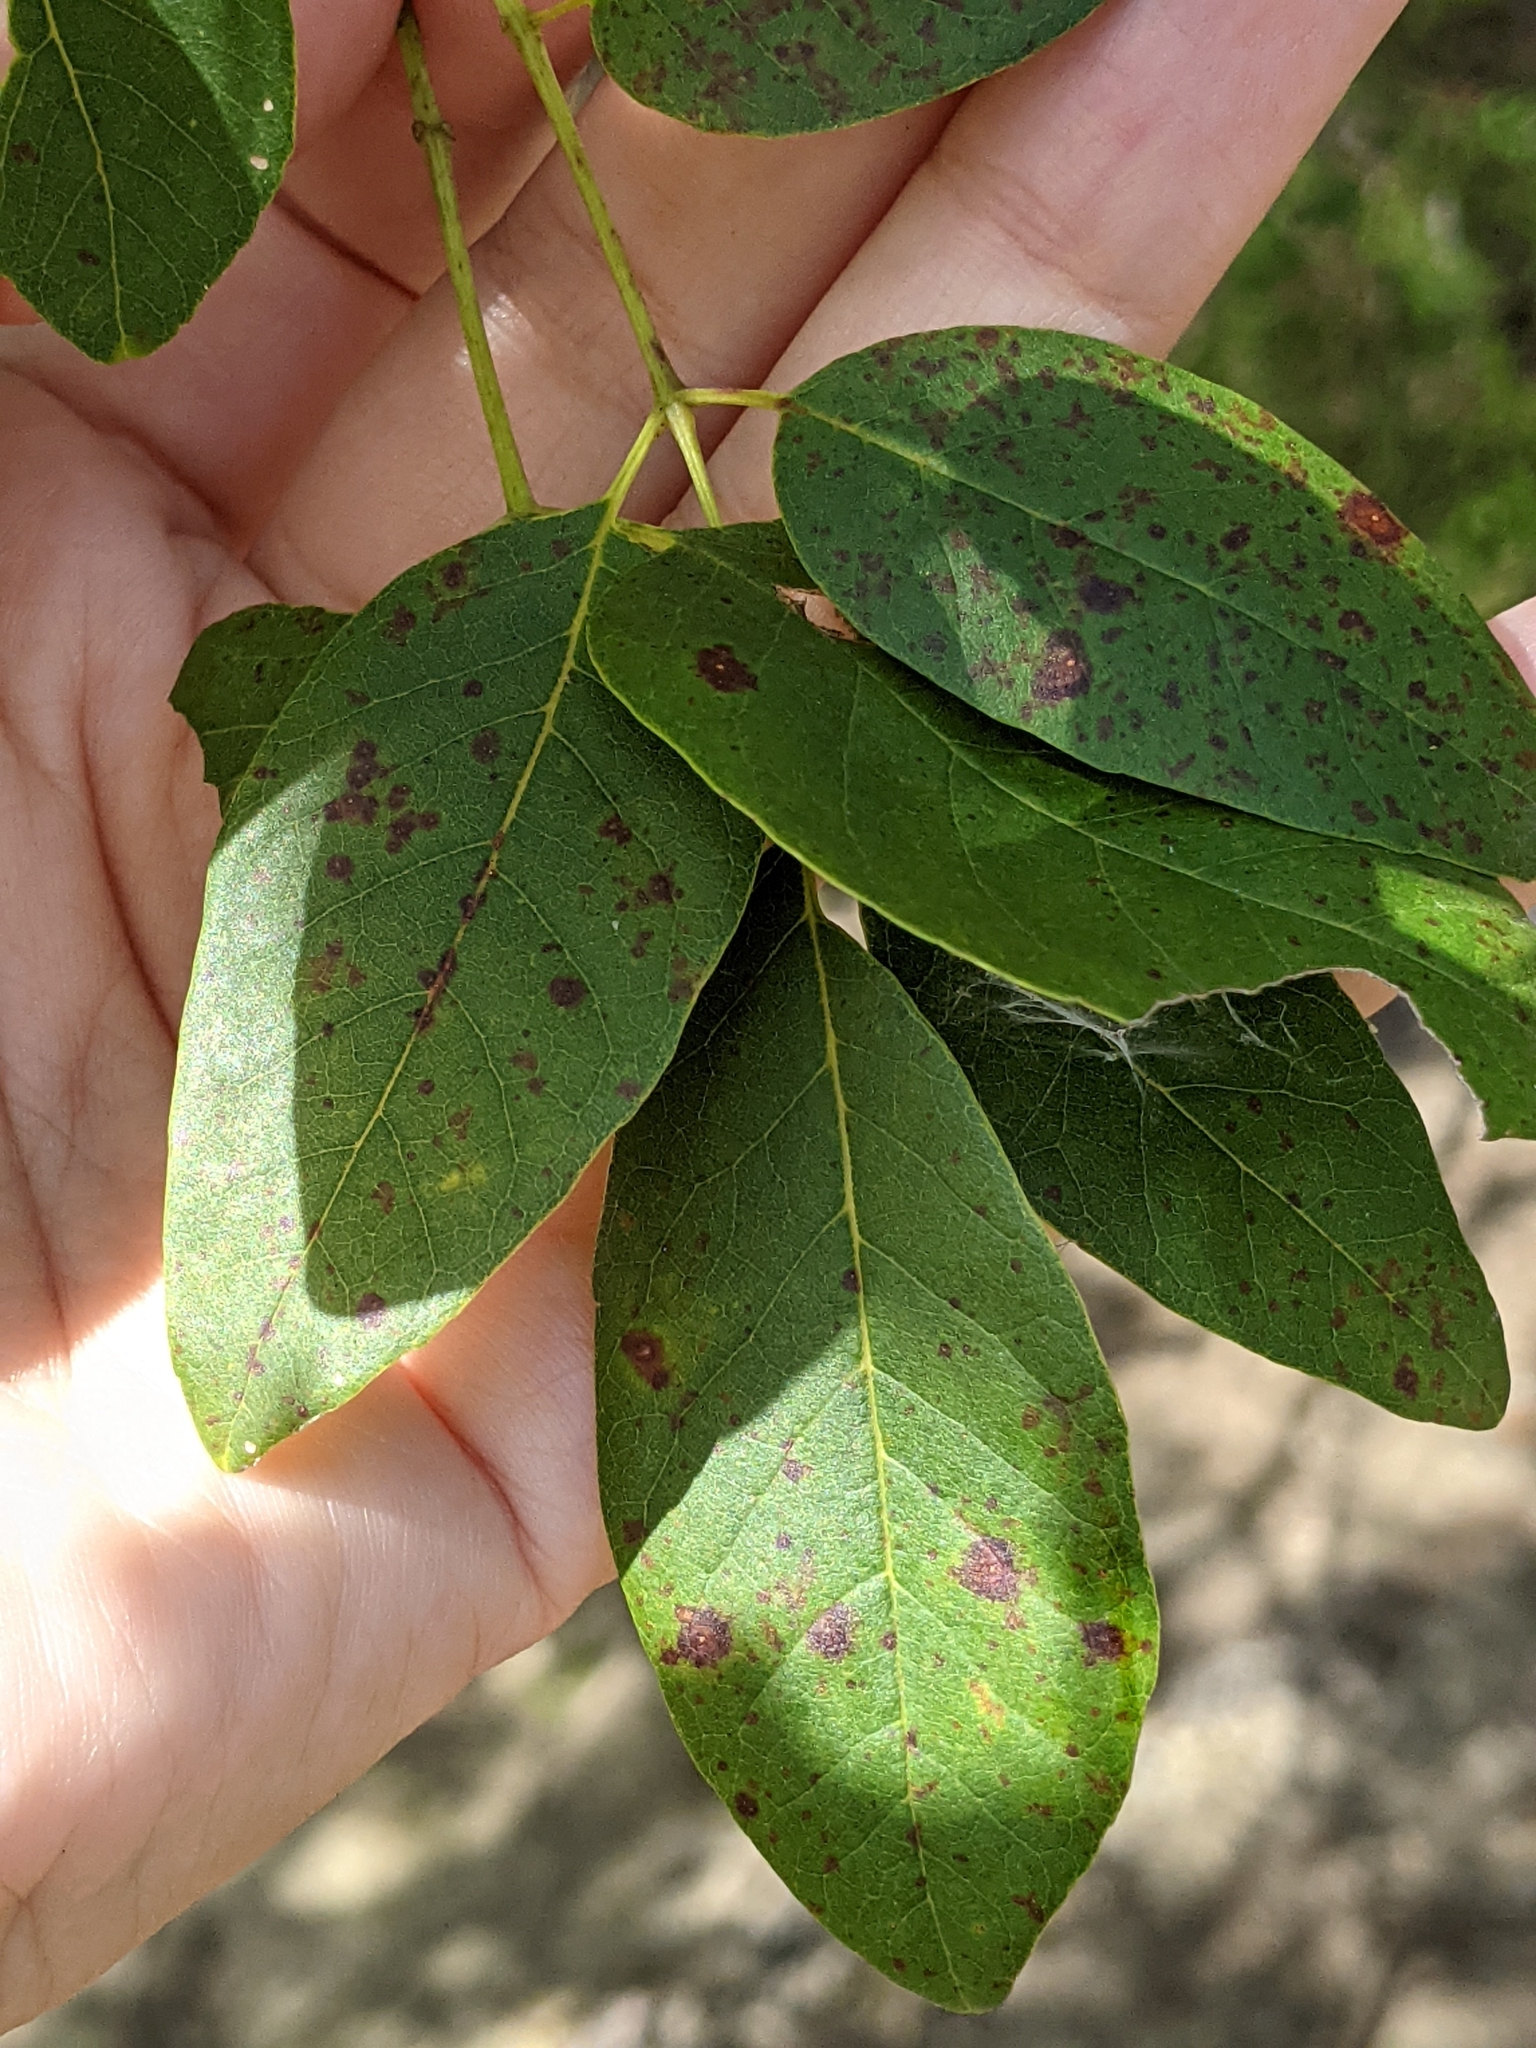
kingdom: Plantae
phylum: Tracheophyta
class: Magnoliopsida
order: Lamiales
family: Oleaceae
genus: Fraxinus
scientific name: Fraxinus albicans
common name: Texas ash
